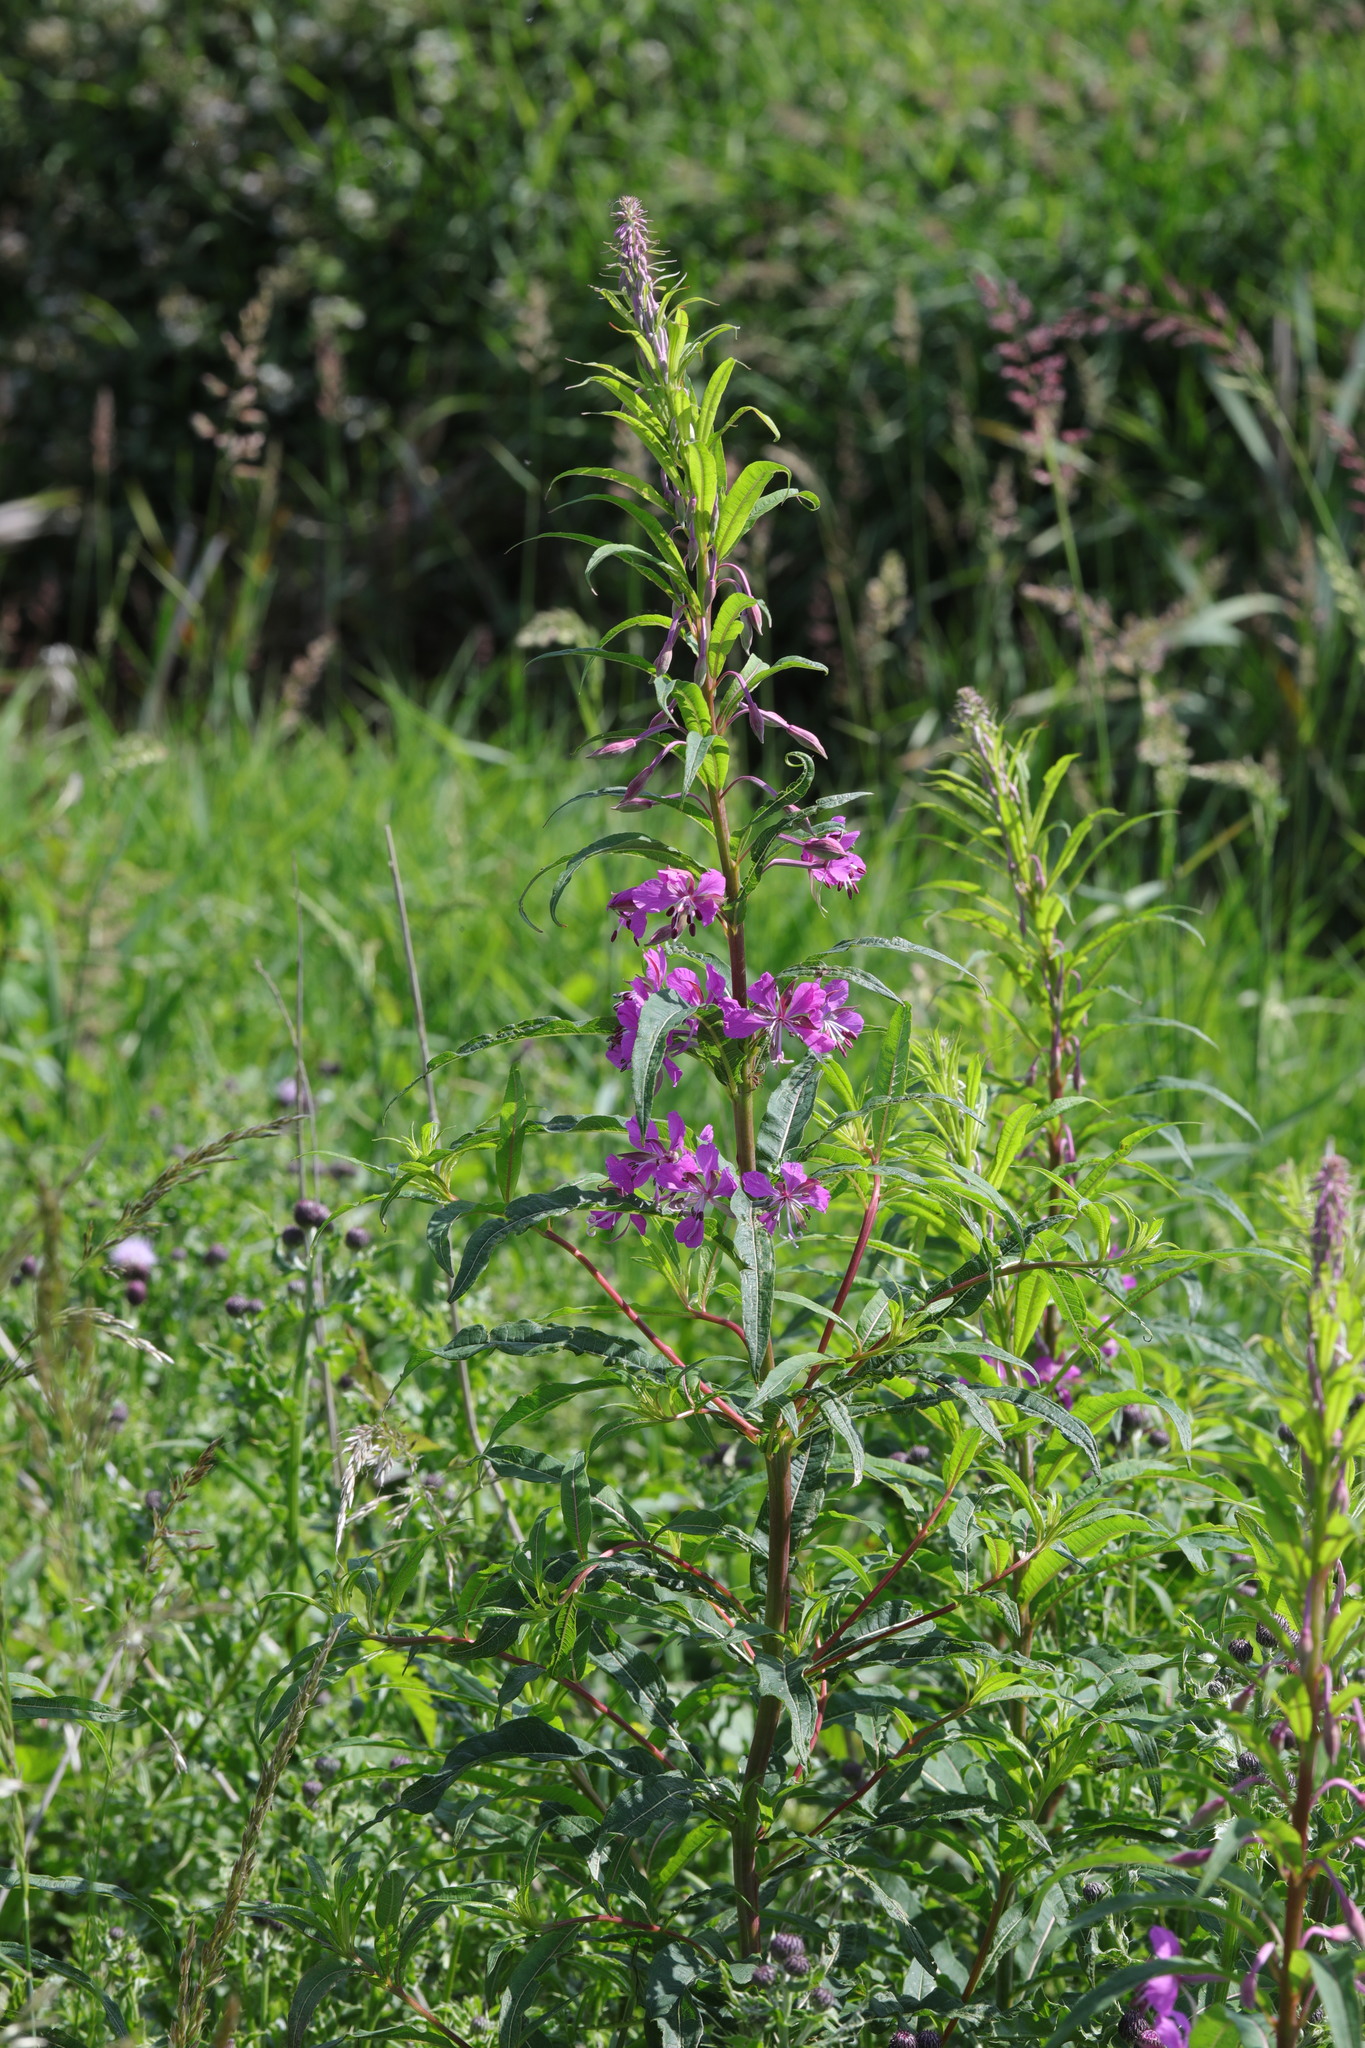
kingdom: Plantae
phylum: Tracheophyta
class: Magnoliopsida
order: Myrtales
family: Onagraceae
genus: Chamaenerion
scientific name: Chamaenerion angustifolium
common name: Fireweed
